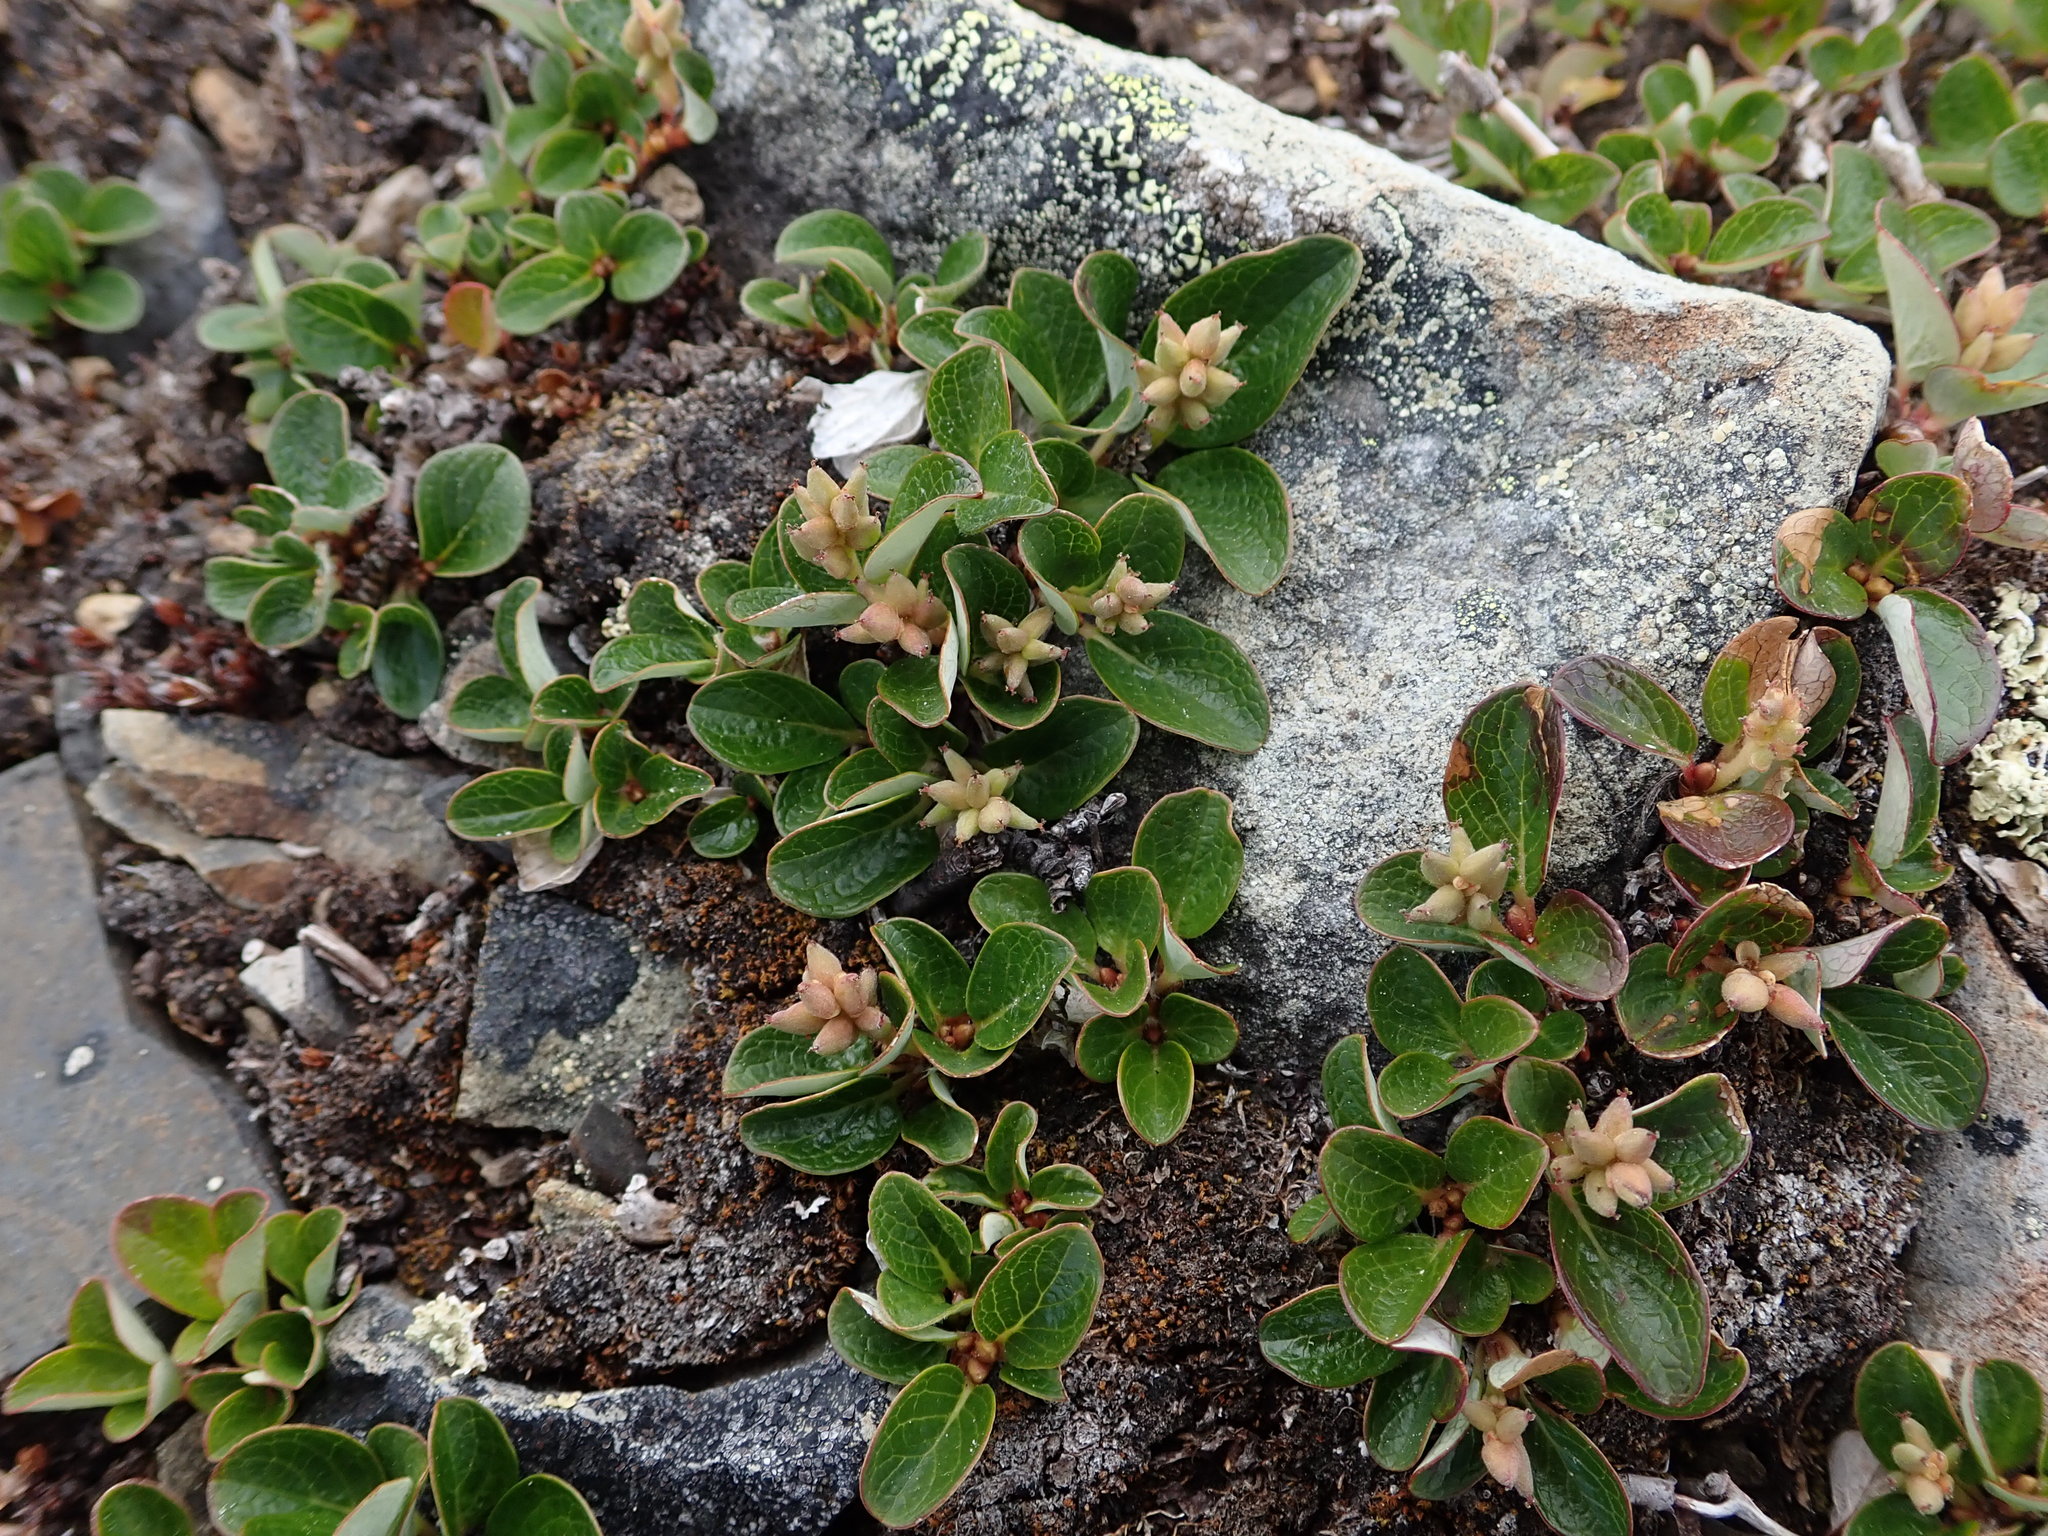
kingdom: Plantae
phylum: Tracheophyta
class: Magnoliopsida
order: Malpighiales
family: Salicaceae
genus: Salix
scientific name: Salix nivalis
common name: Dwarf snow willow
